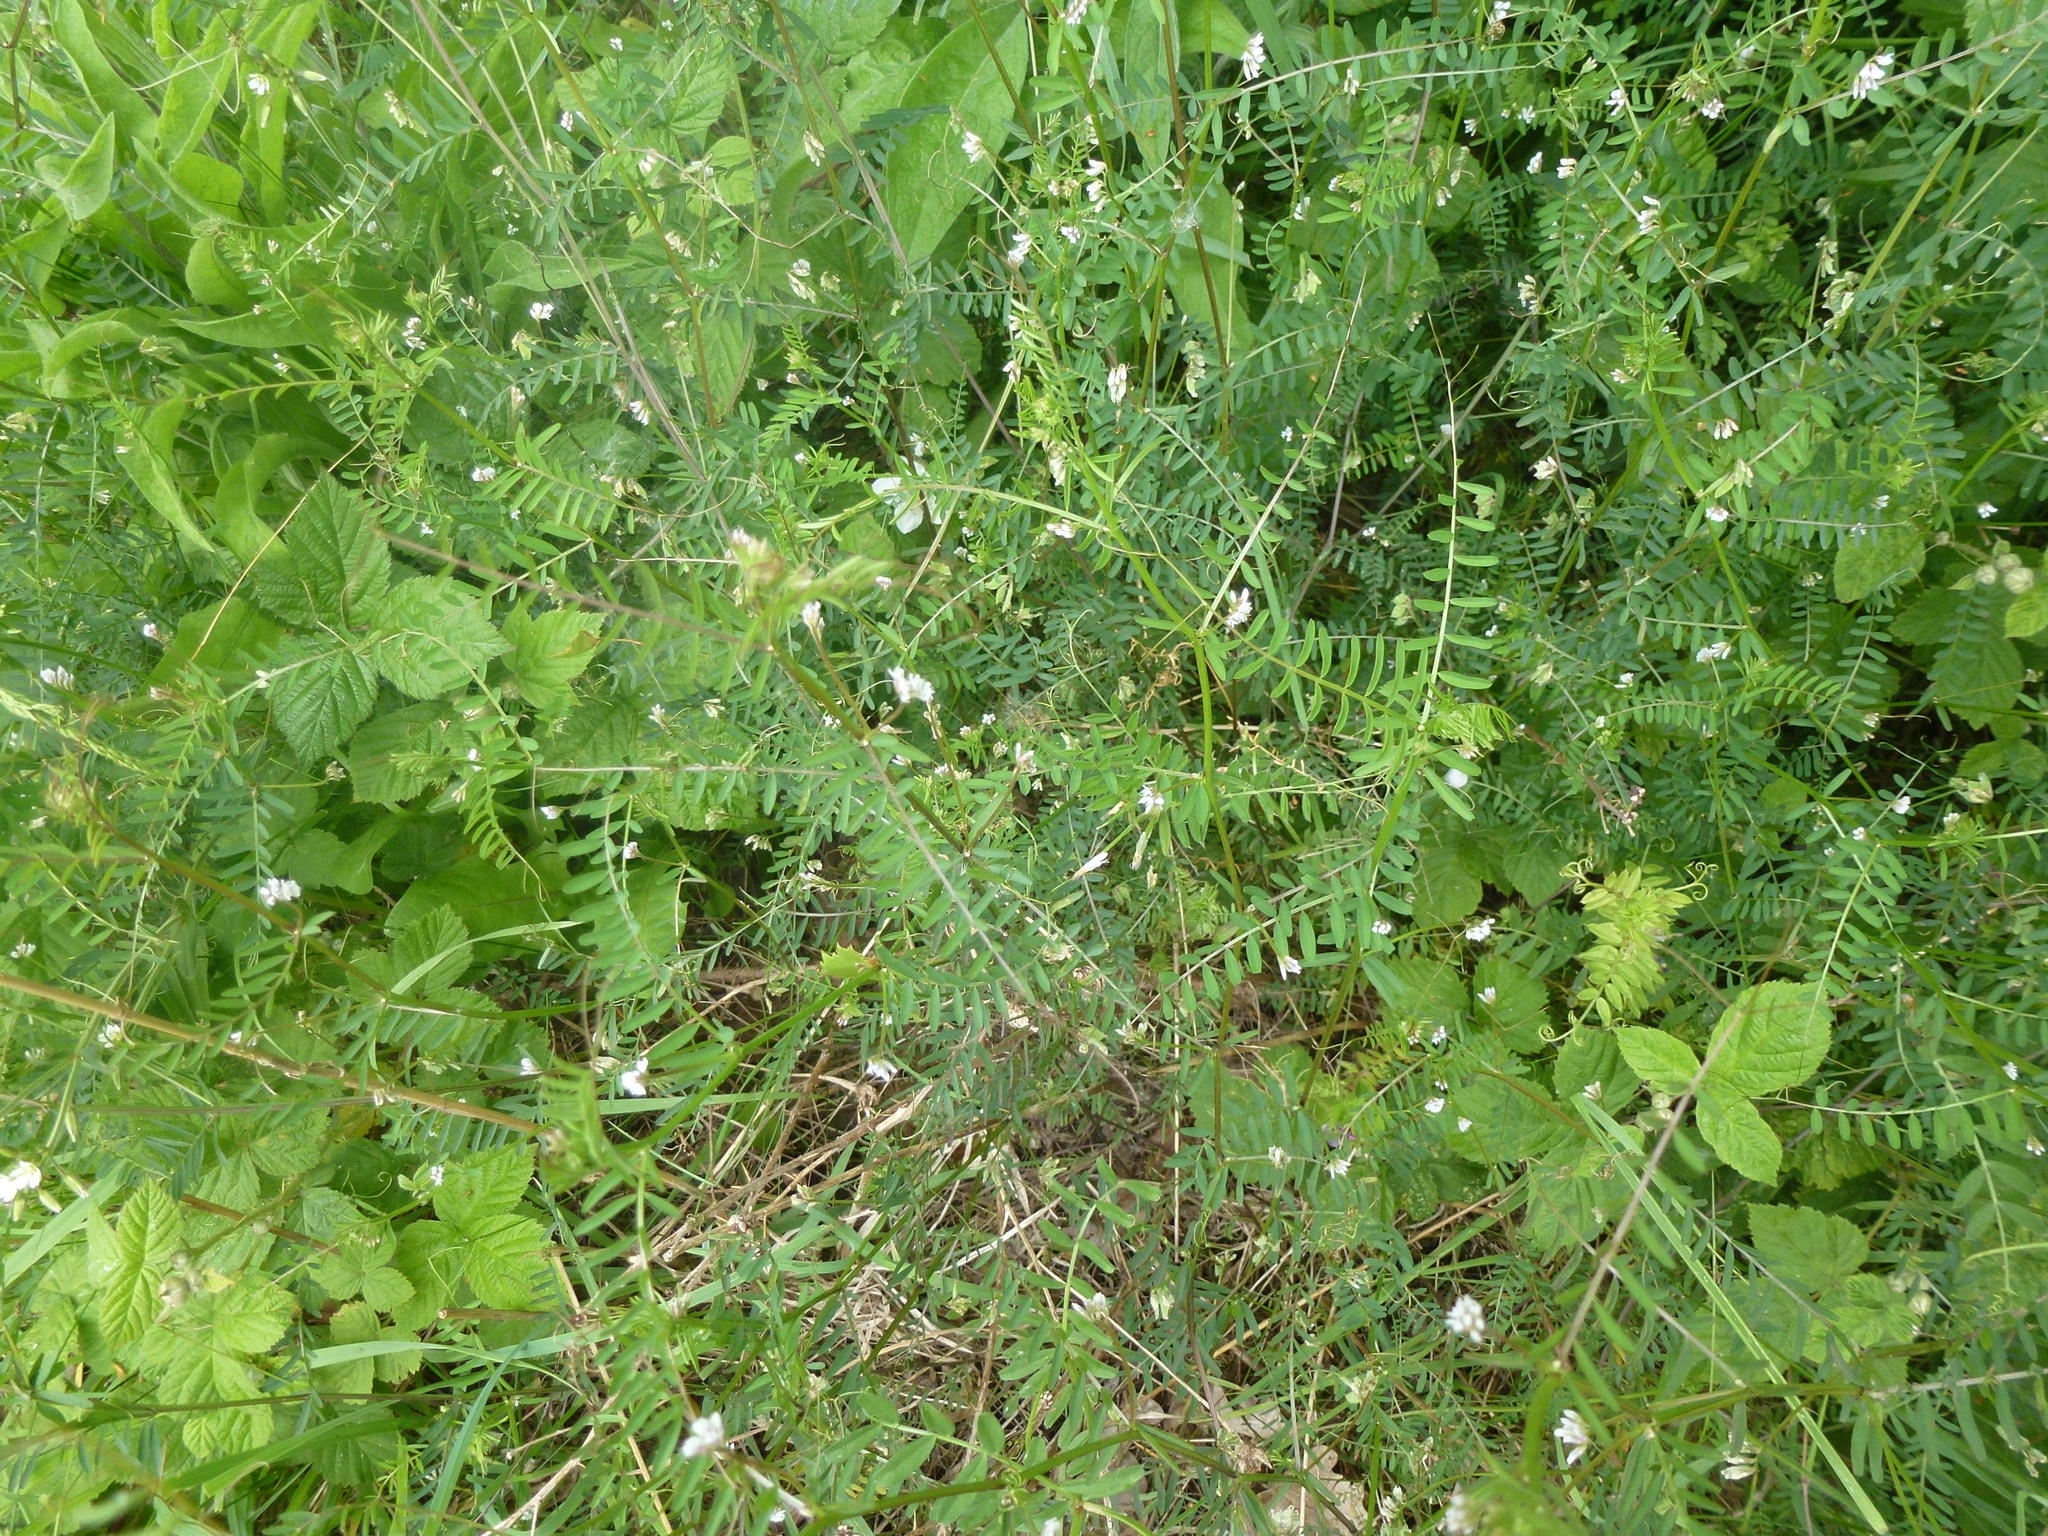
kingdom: Plantae
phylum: Tracheophyta
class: Magnoliopsida
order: Fabales
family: Fabaceae
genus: Vicia
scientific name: Vicia hirsuta
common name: Tiny vetch
